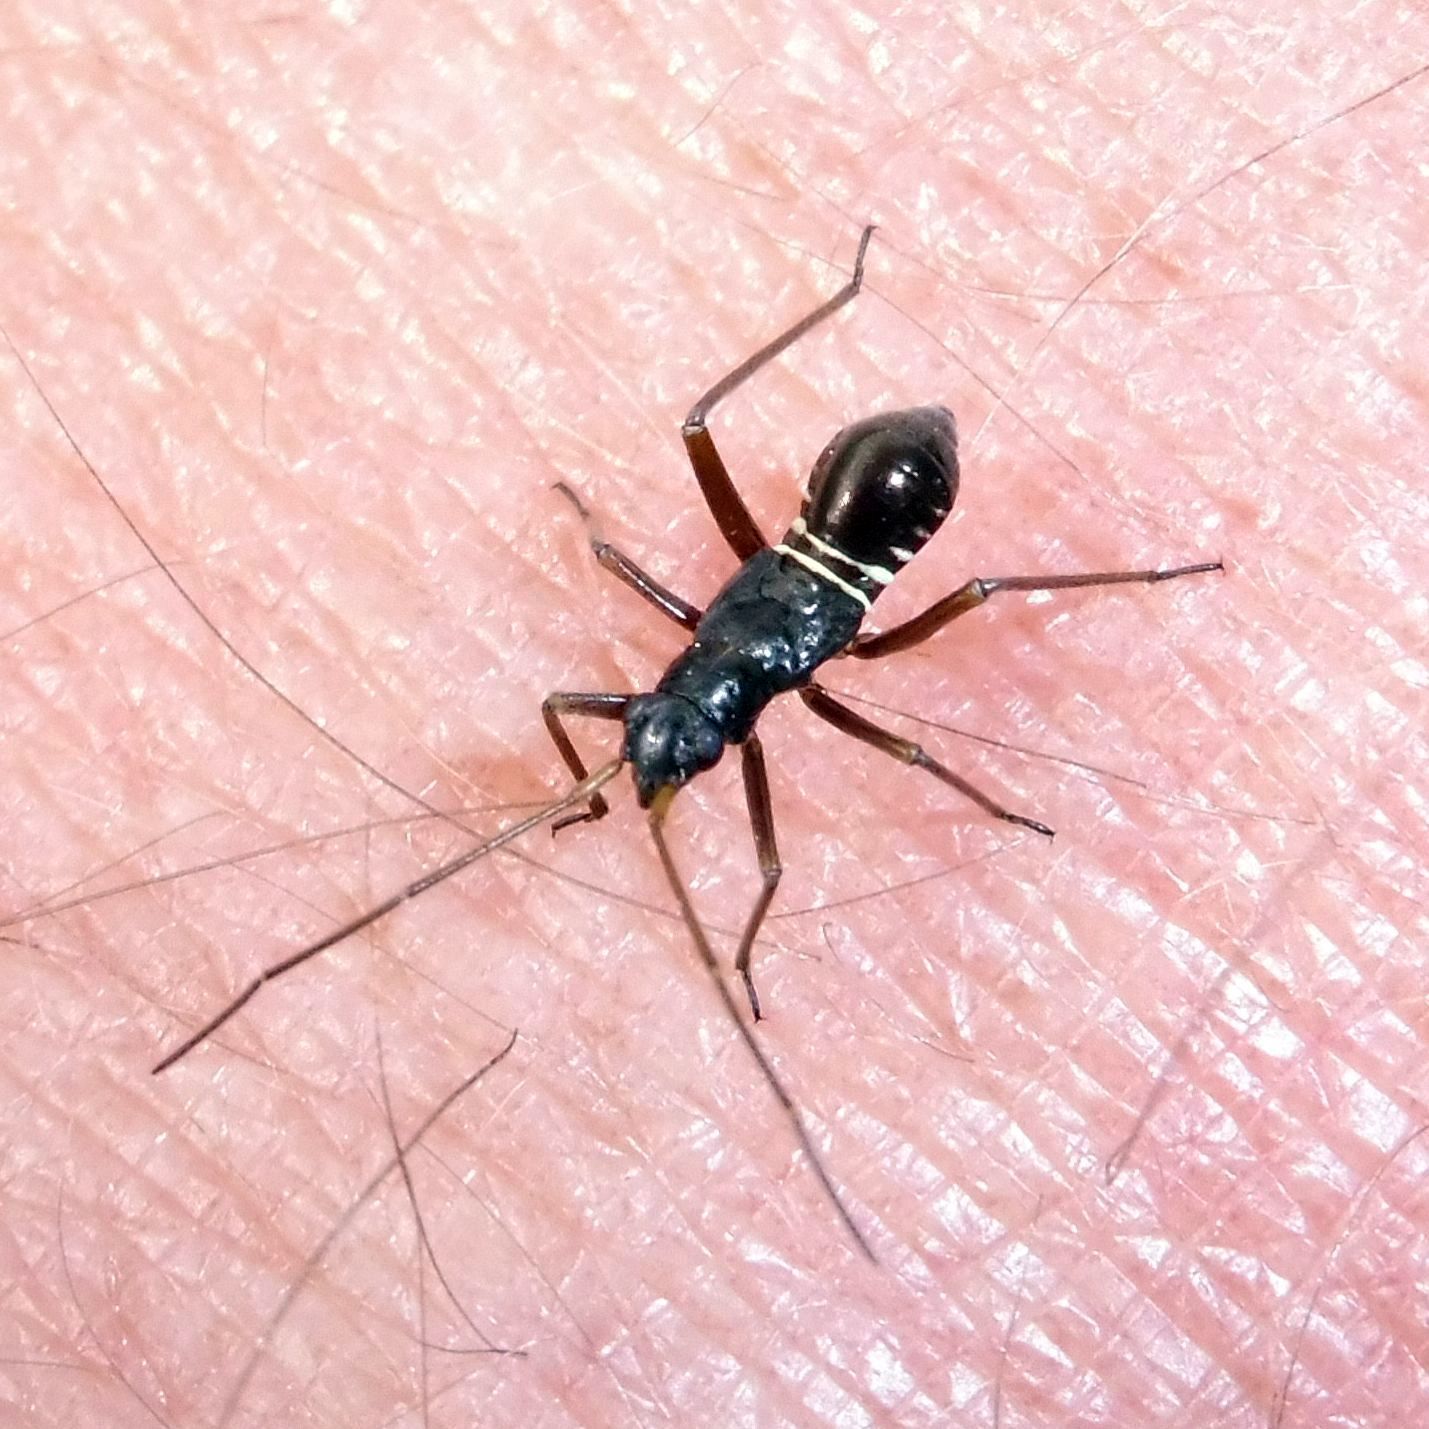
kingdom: Animalia
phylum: Arthropoda
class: Insecta
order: Hemiptera
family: Miridae
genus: Miris
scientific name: Miris striatus
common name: Fine streaked bugkin
